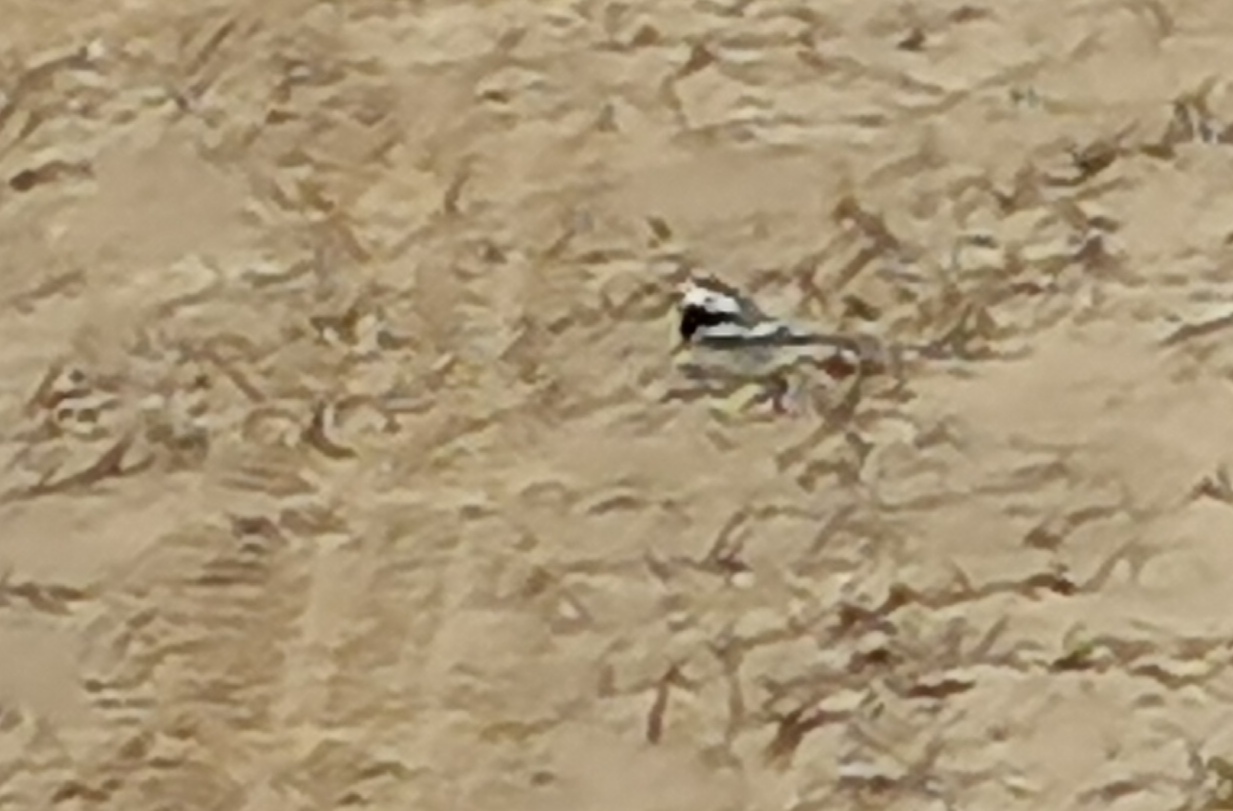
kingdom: Animalia
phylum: Chordata
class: Aves
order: Passeriformes
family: Motacillidae
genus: Motacilla
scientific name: Motacilla alba
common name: White wagtail
